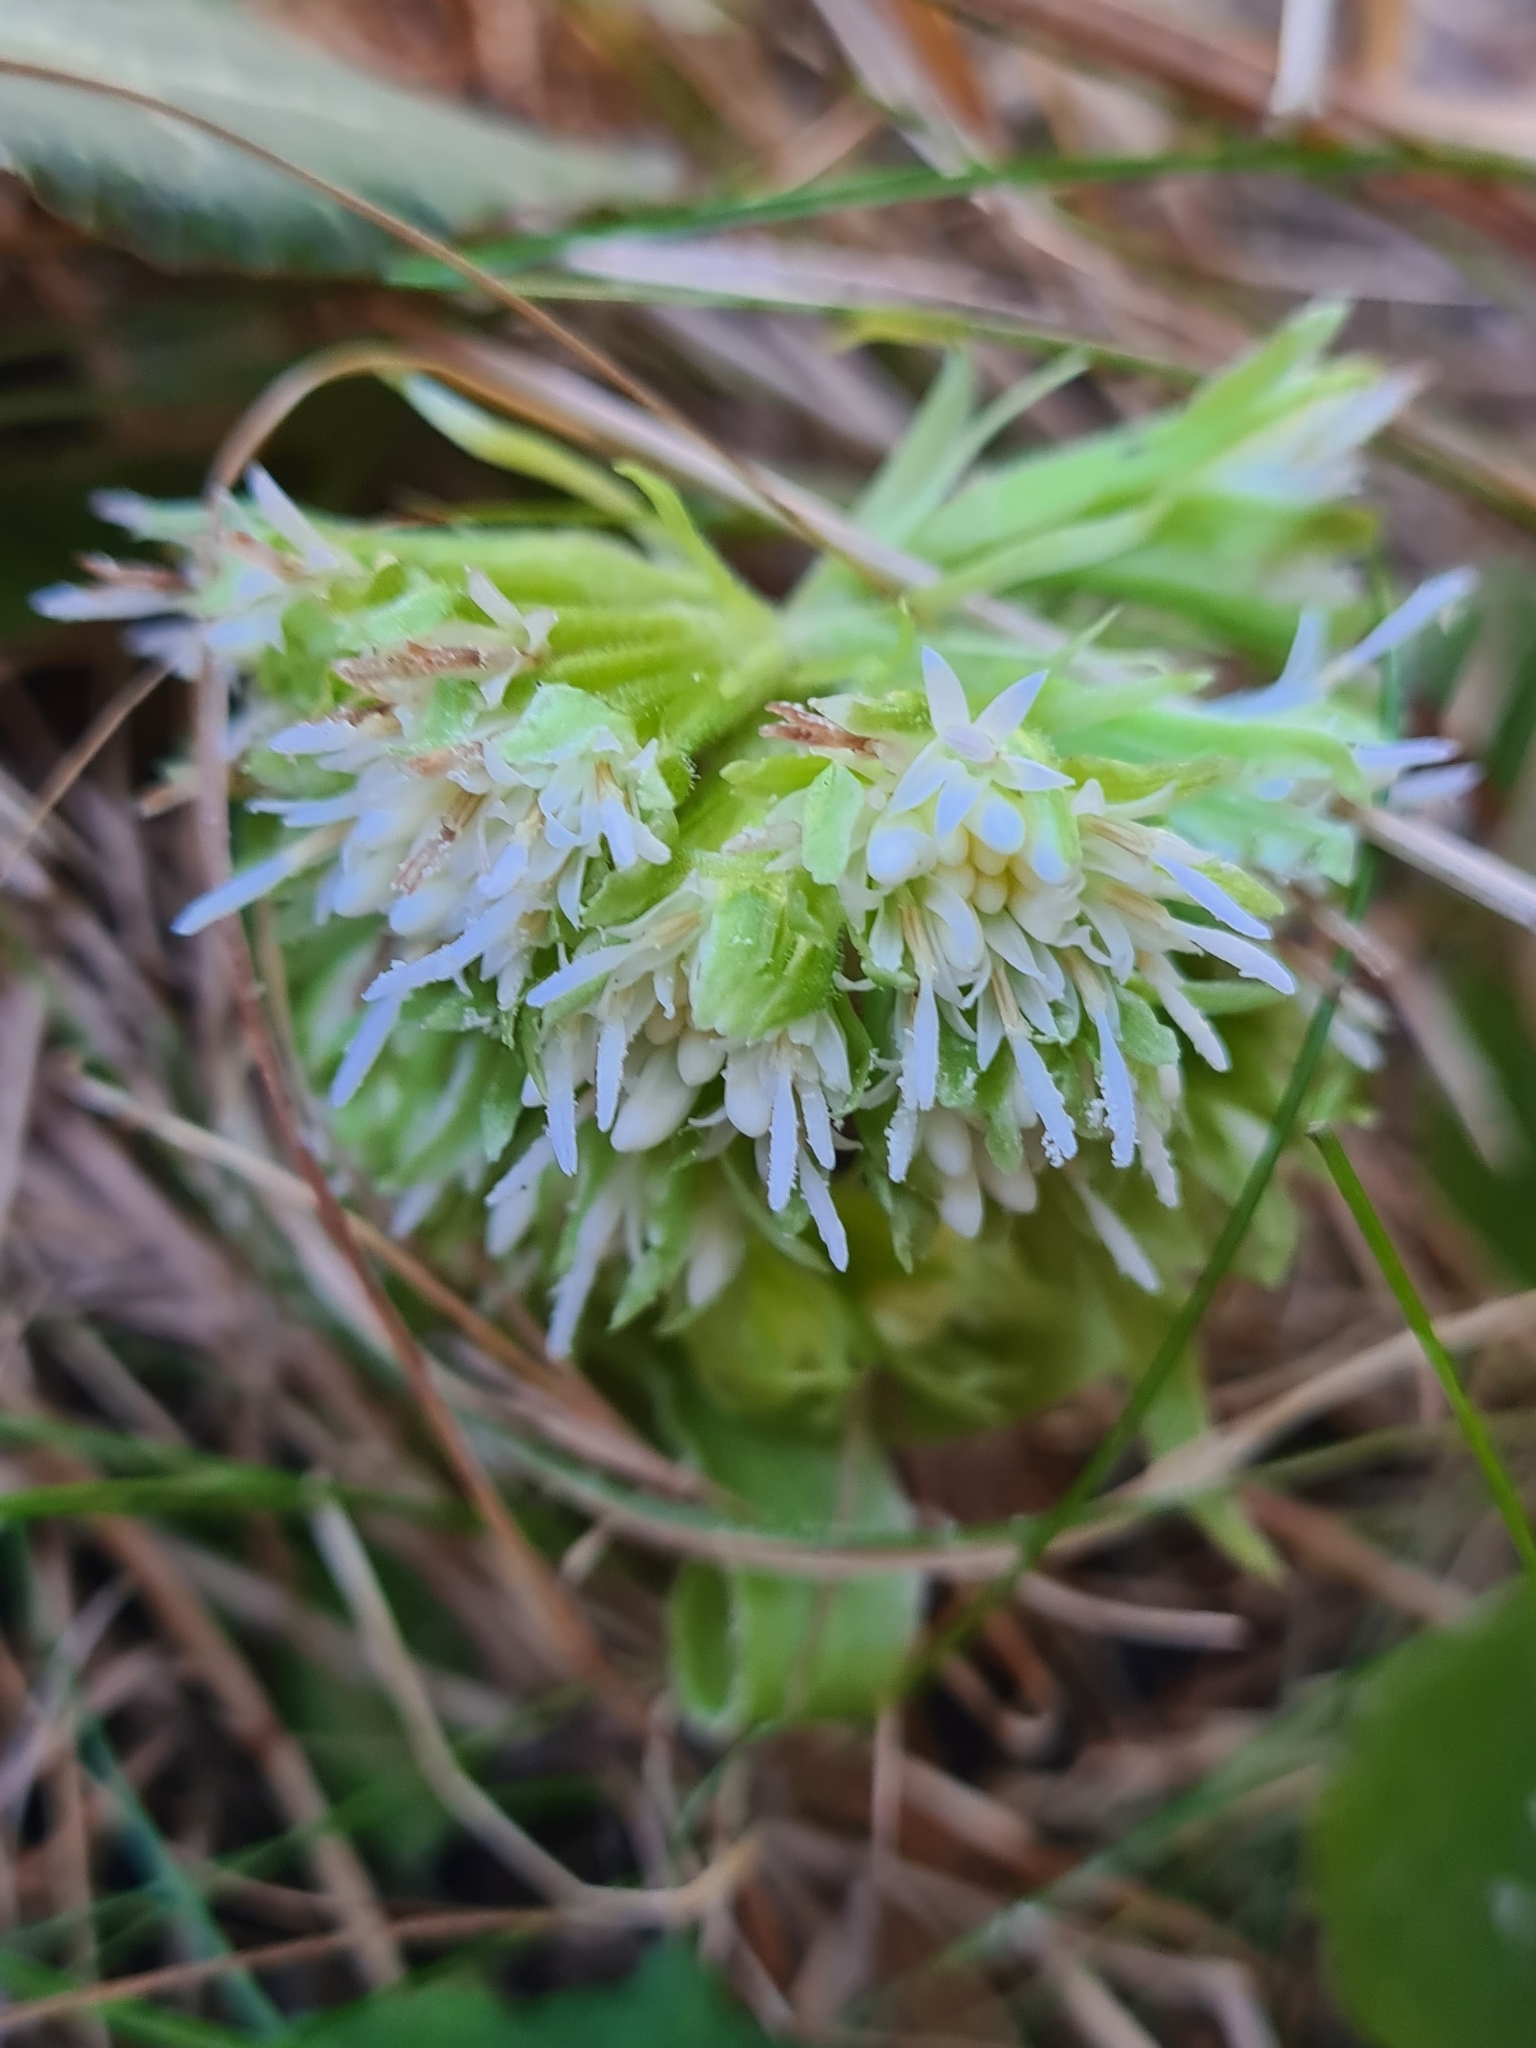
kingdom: Plantae
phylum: Tracheophyta
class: Magnoliopsida
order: Asterales
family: Asteraceae
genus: Petasites
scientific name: Petasites albus
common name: White butterbur
